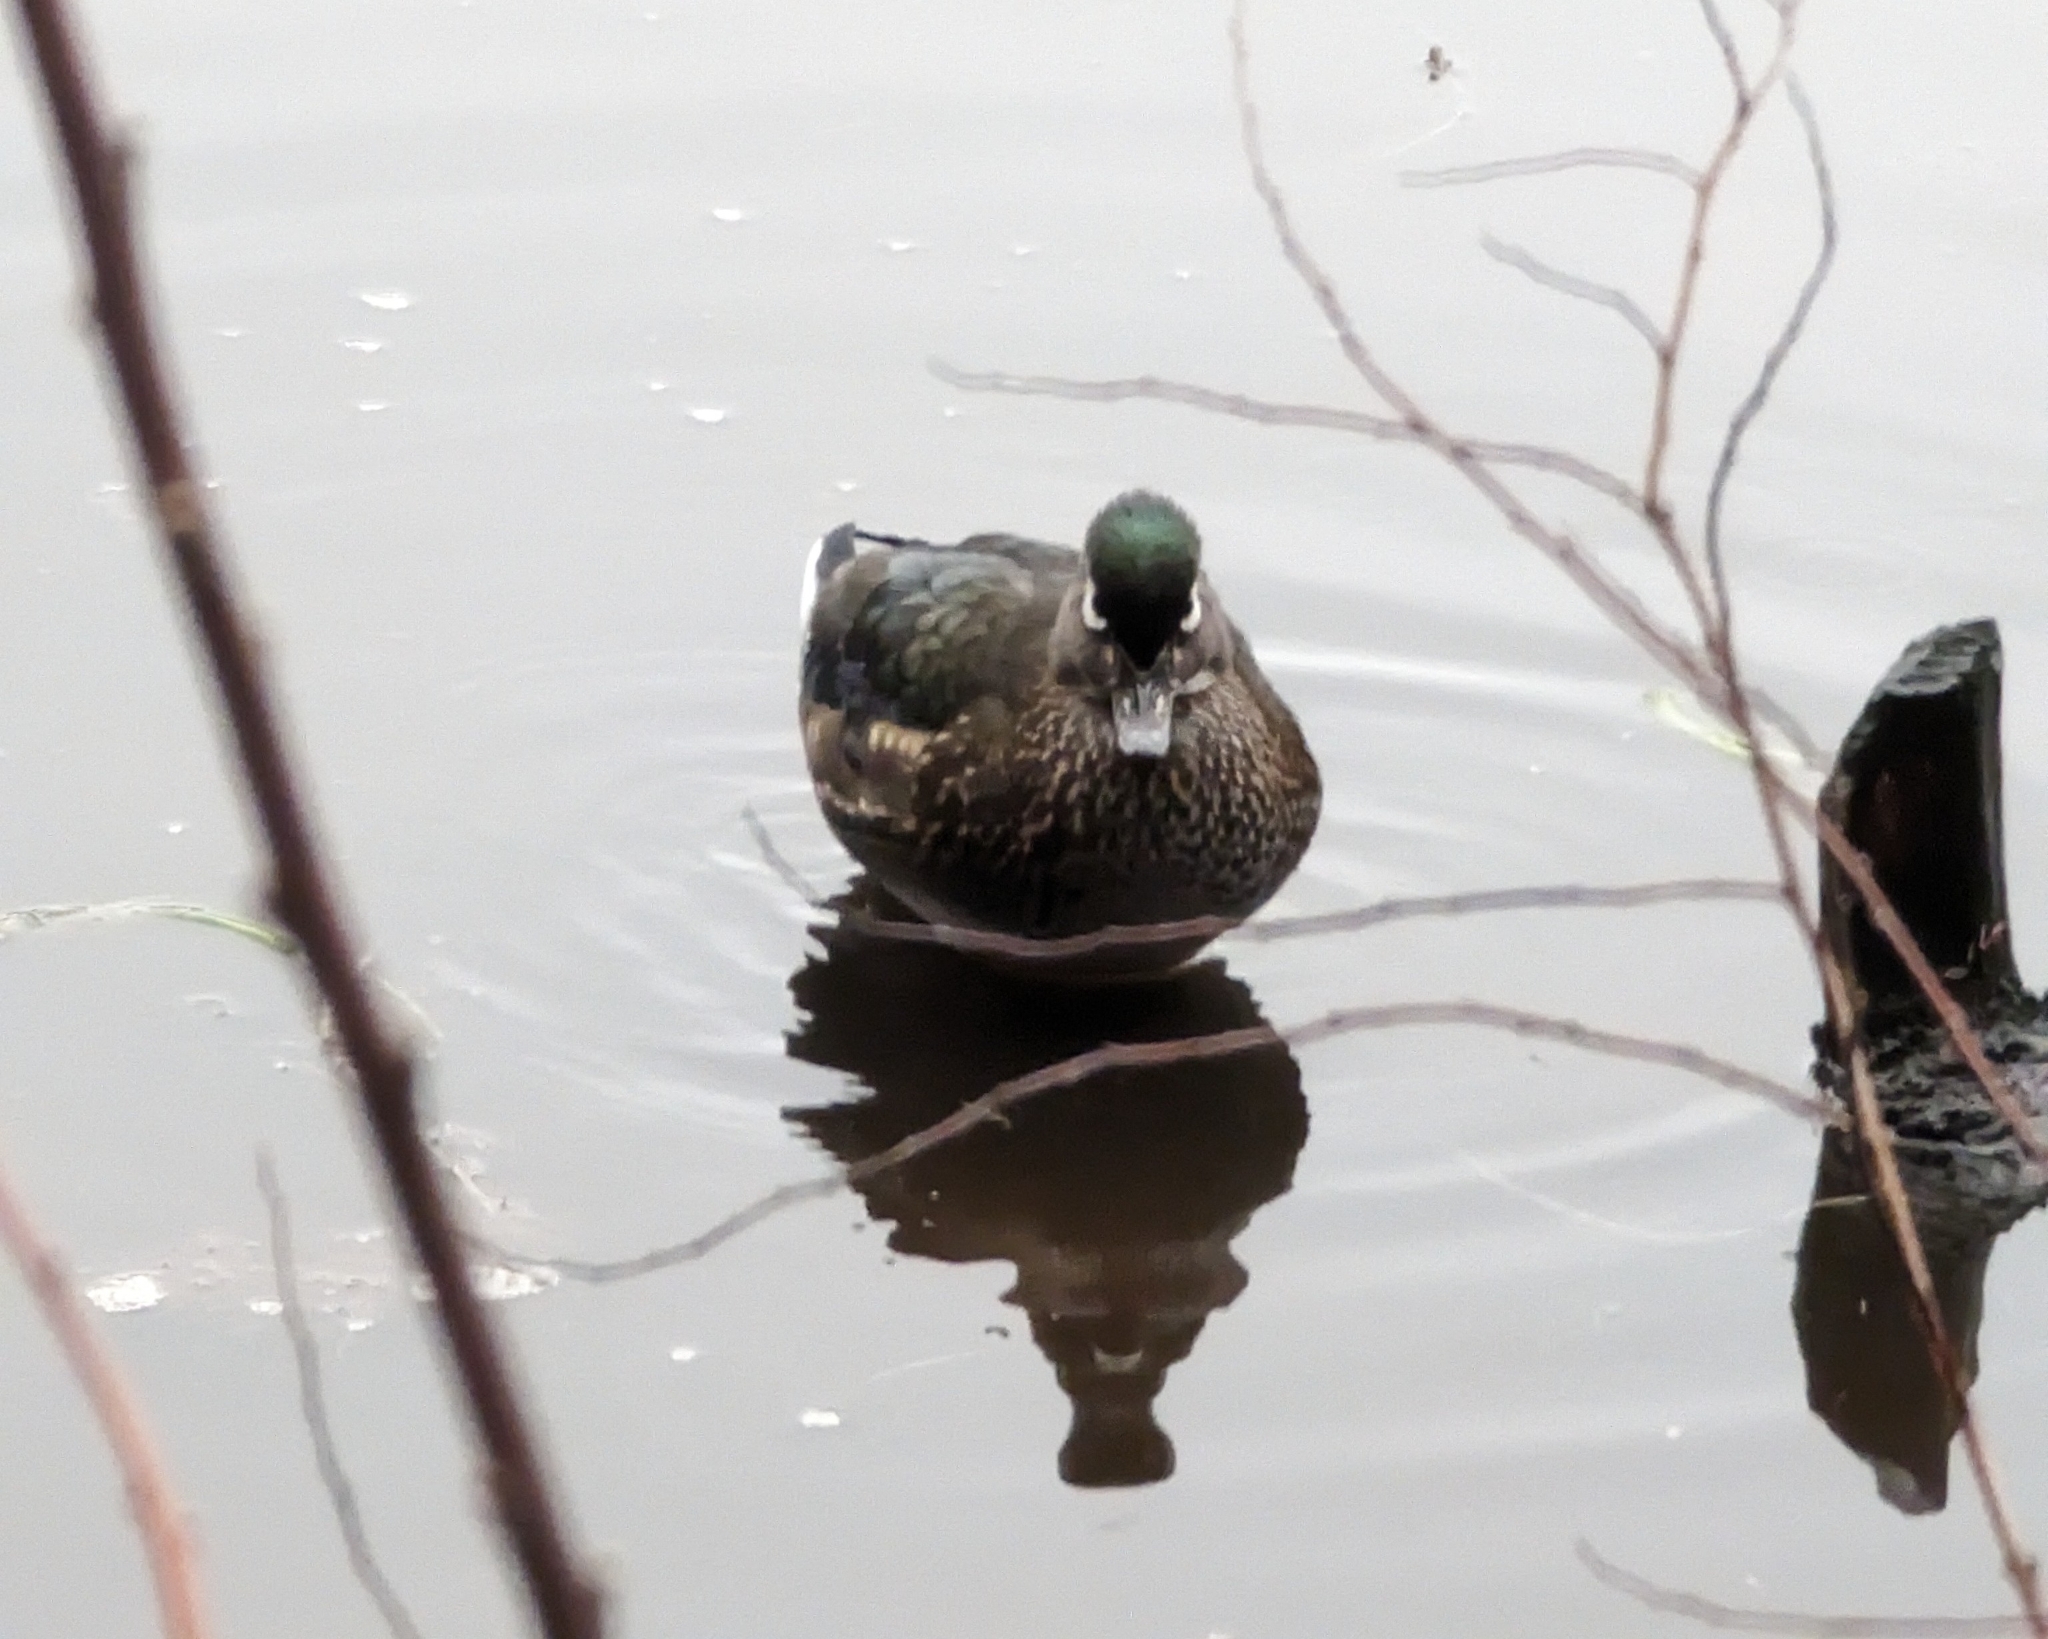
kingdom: Animalia
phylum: Chordata
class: Aves
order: Anseriformes
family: Anatidae
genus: Aix
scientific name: Aix sponsa
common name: Wood duck
